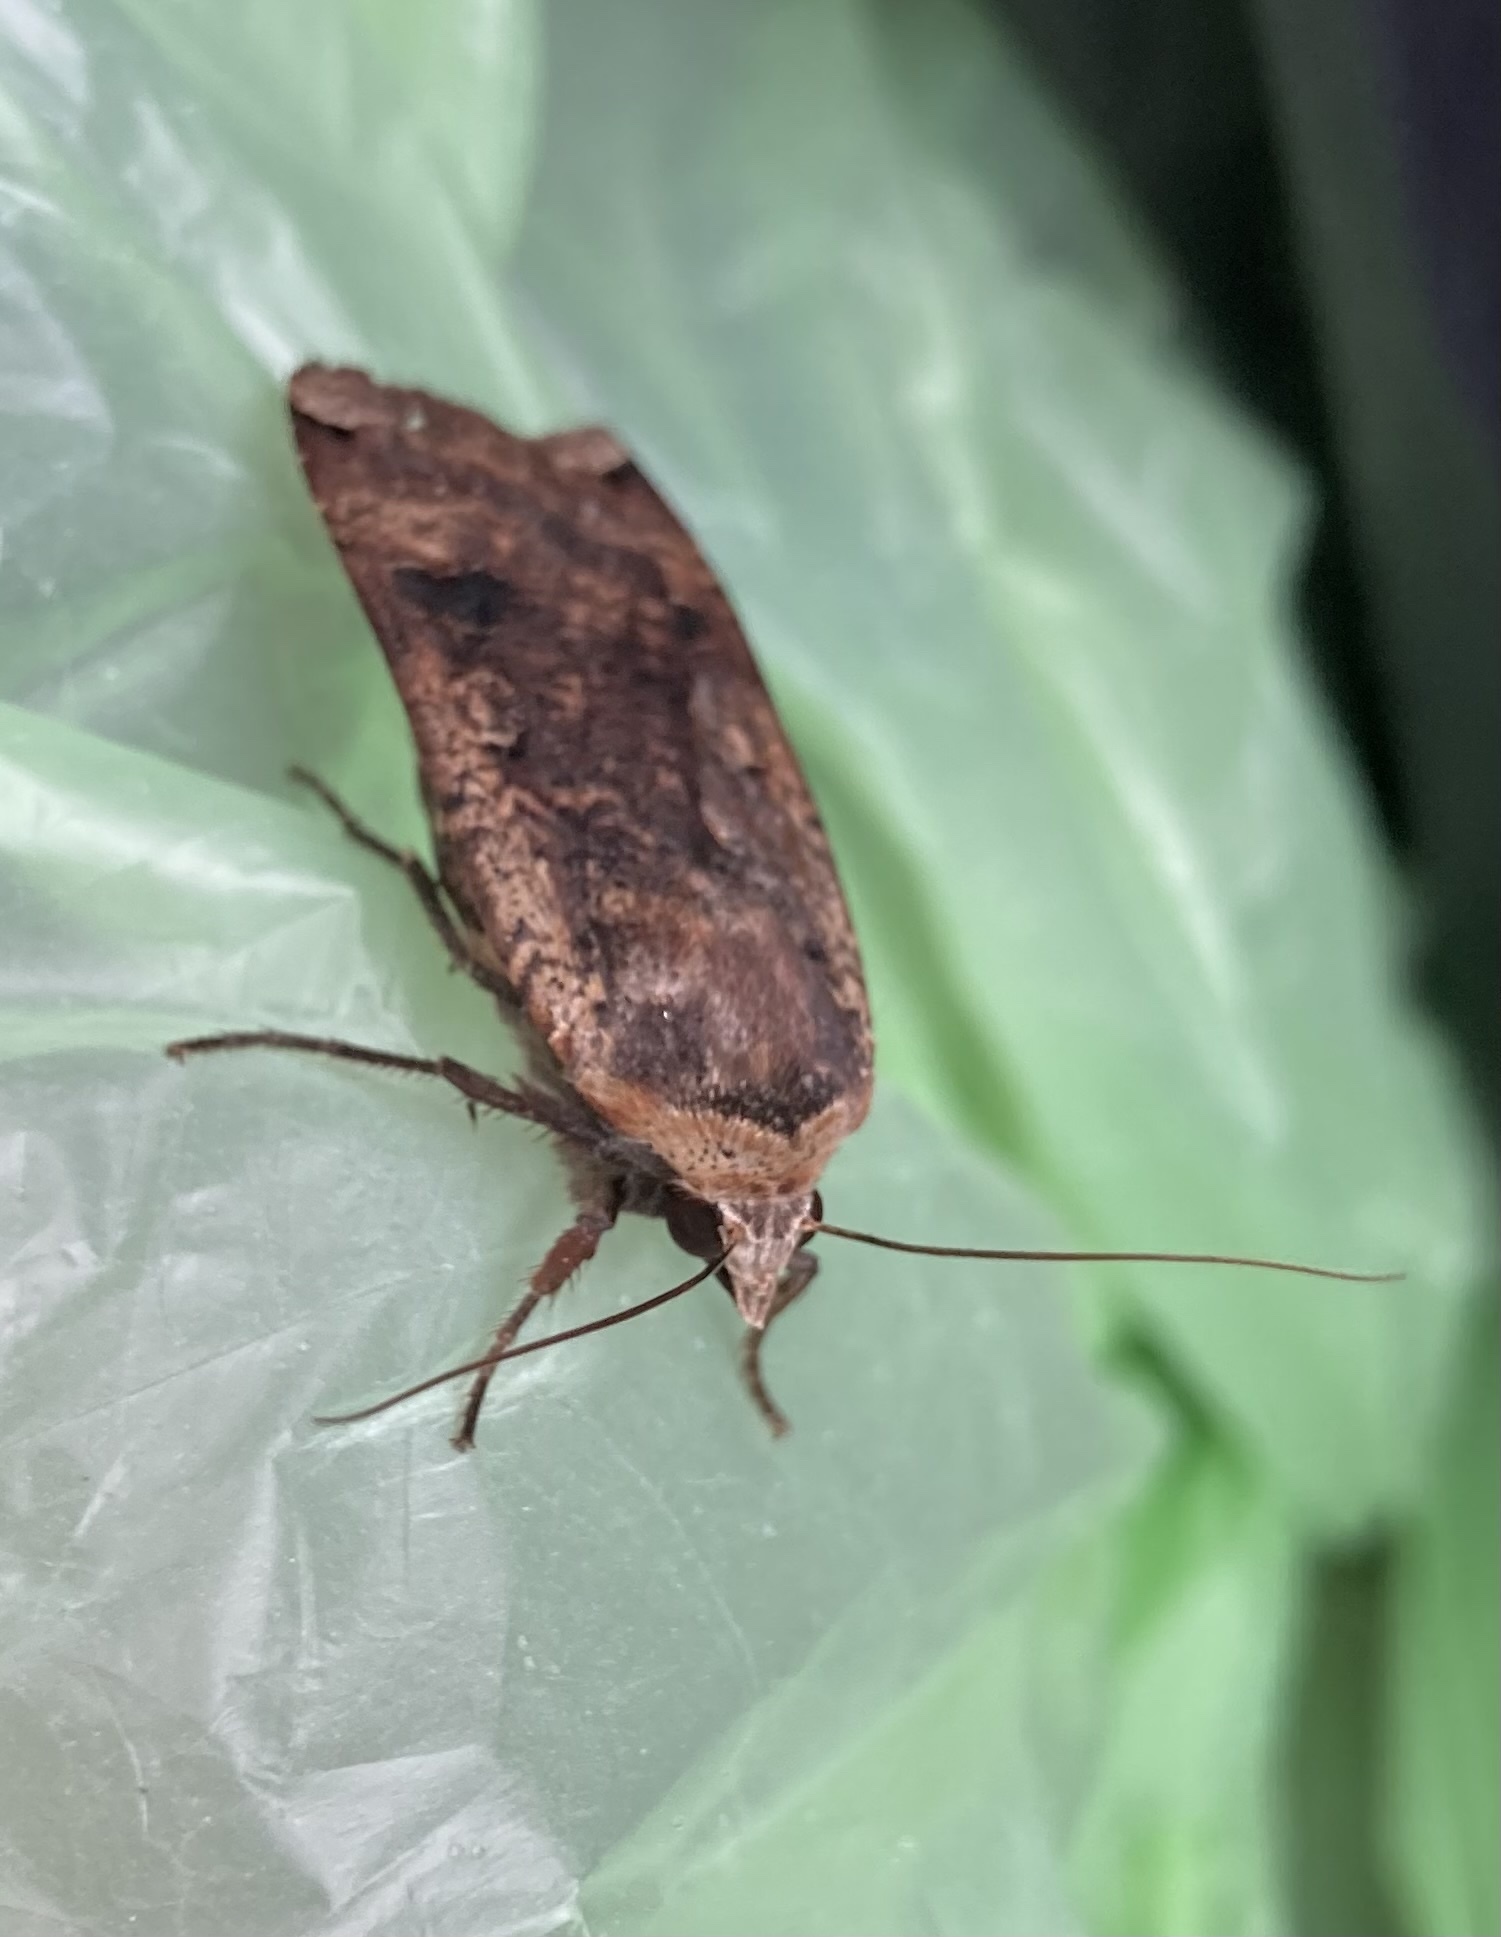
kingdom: Animalia
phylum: Arthropoda
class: Insecta
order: Lepidoptera
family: Noctuidae
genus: Noctua
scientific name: Noctua pronuba
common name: Large yellow underwing
